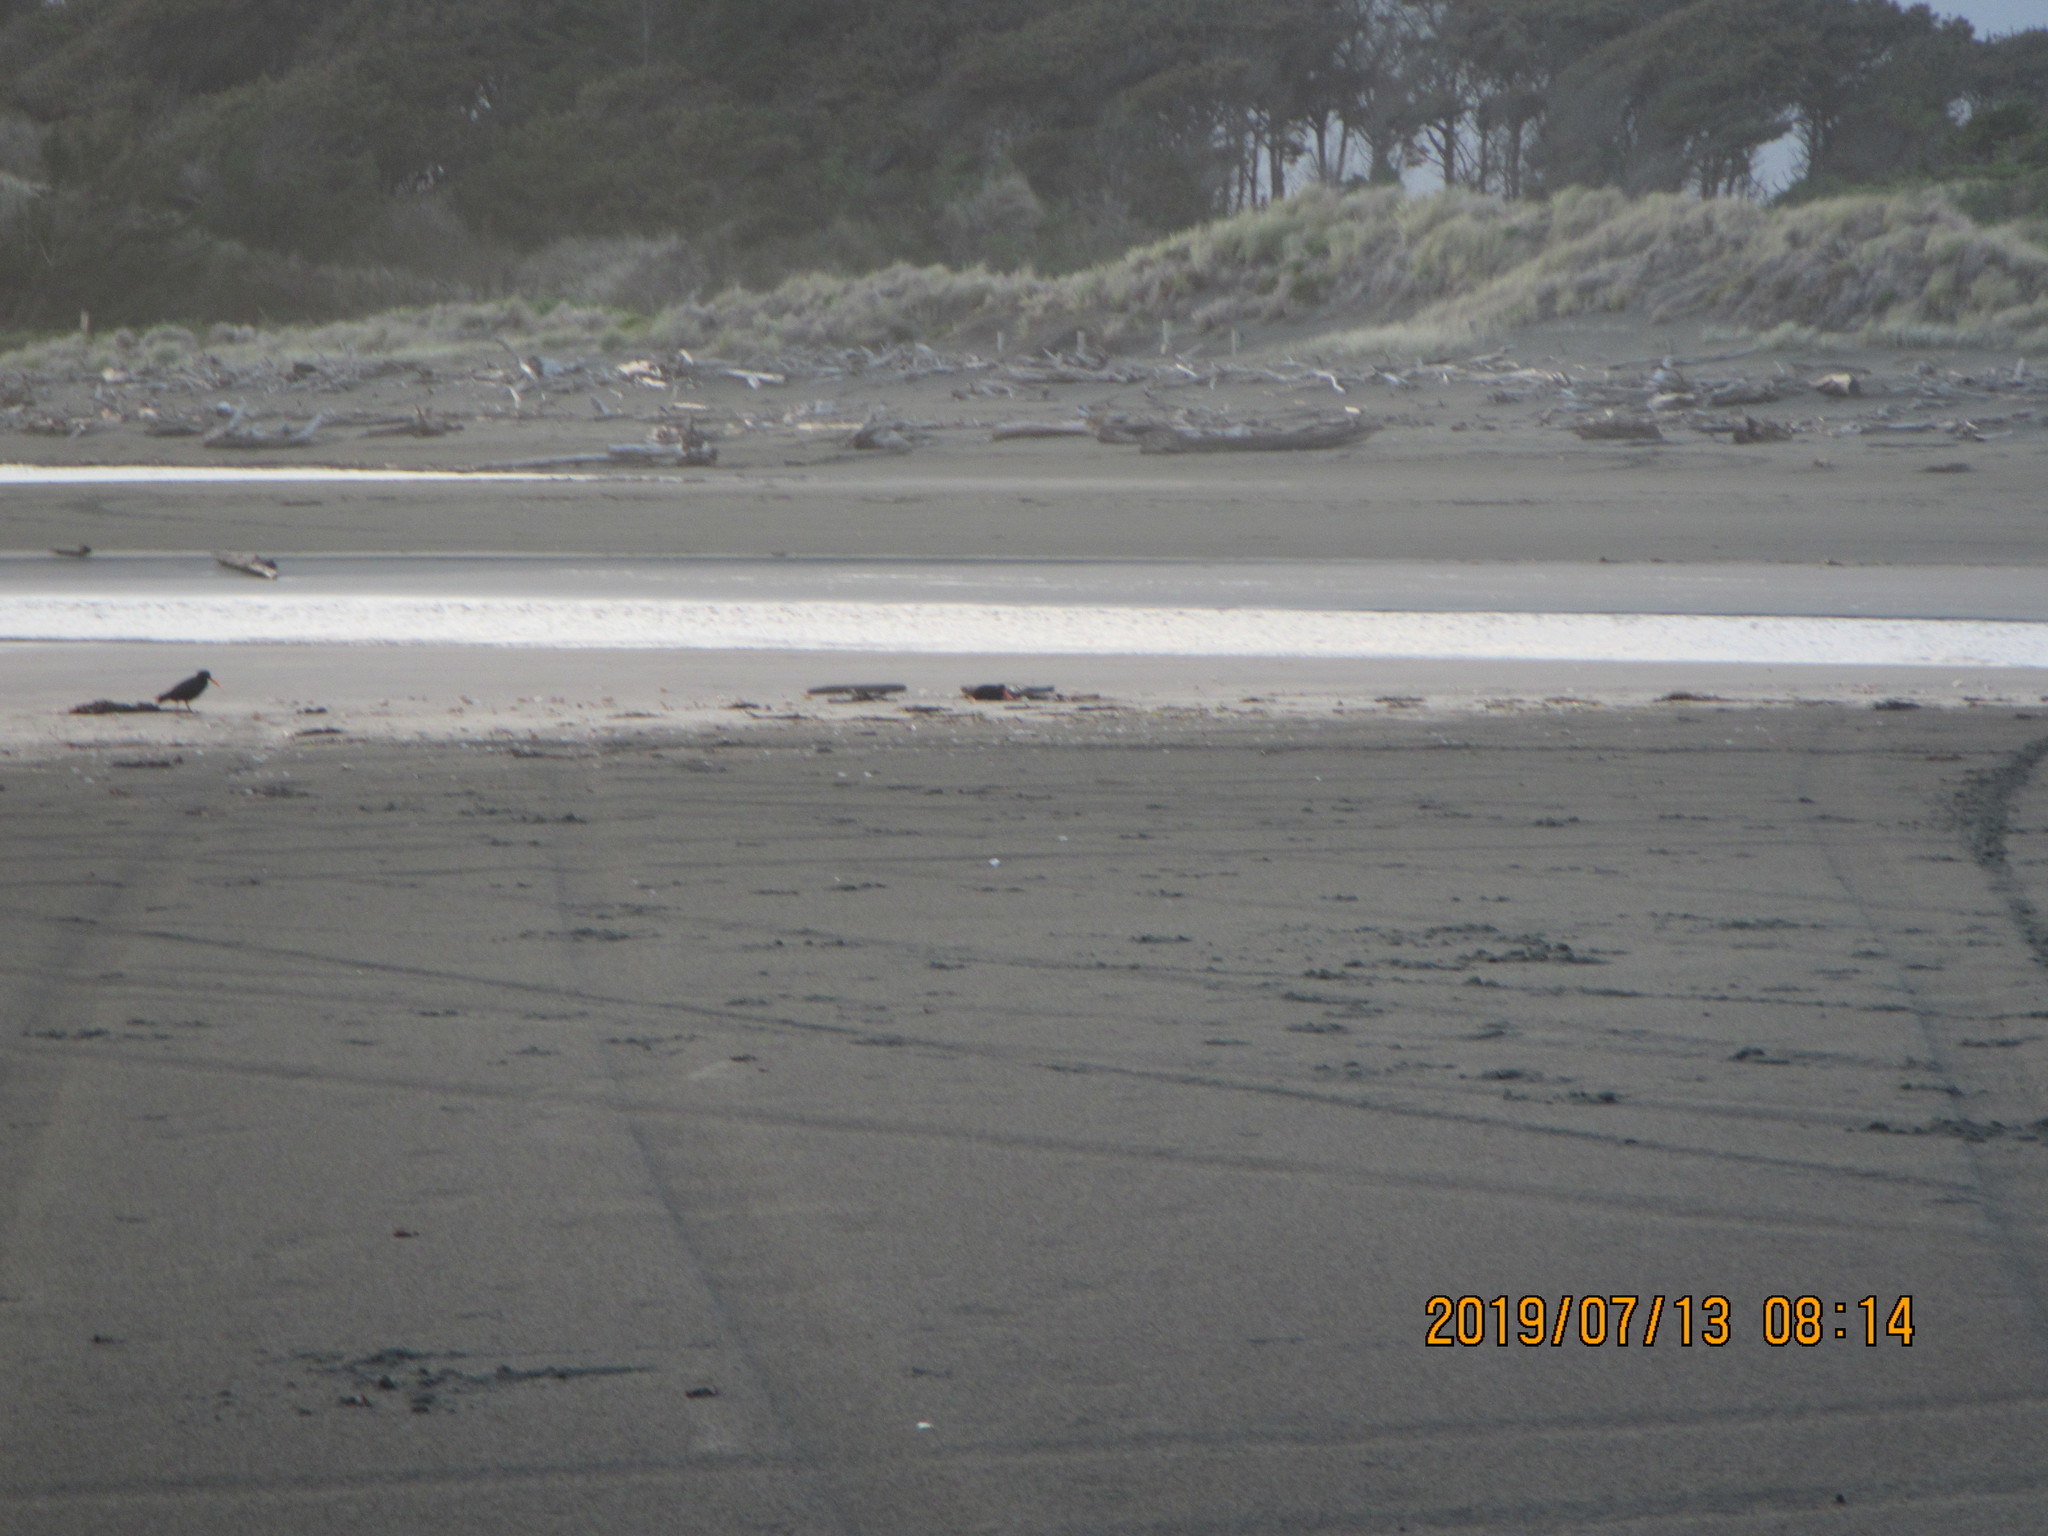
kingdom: Animalia
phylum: Chordata
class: Aves
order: Charadriiformes
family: Haematopodidae
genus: Haematopus
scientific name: Haematopus unicolor
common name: Variable oystercatcher
